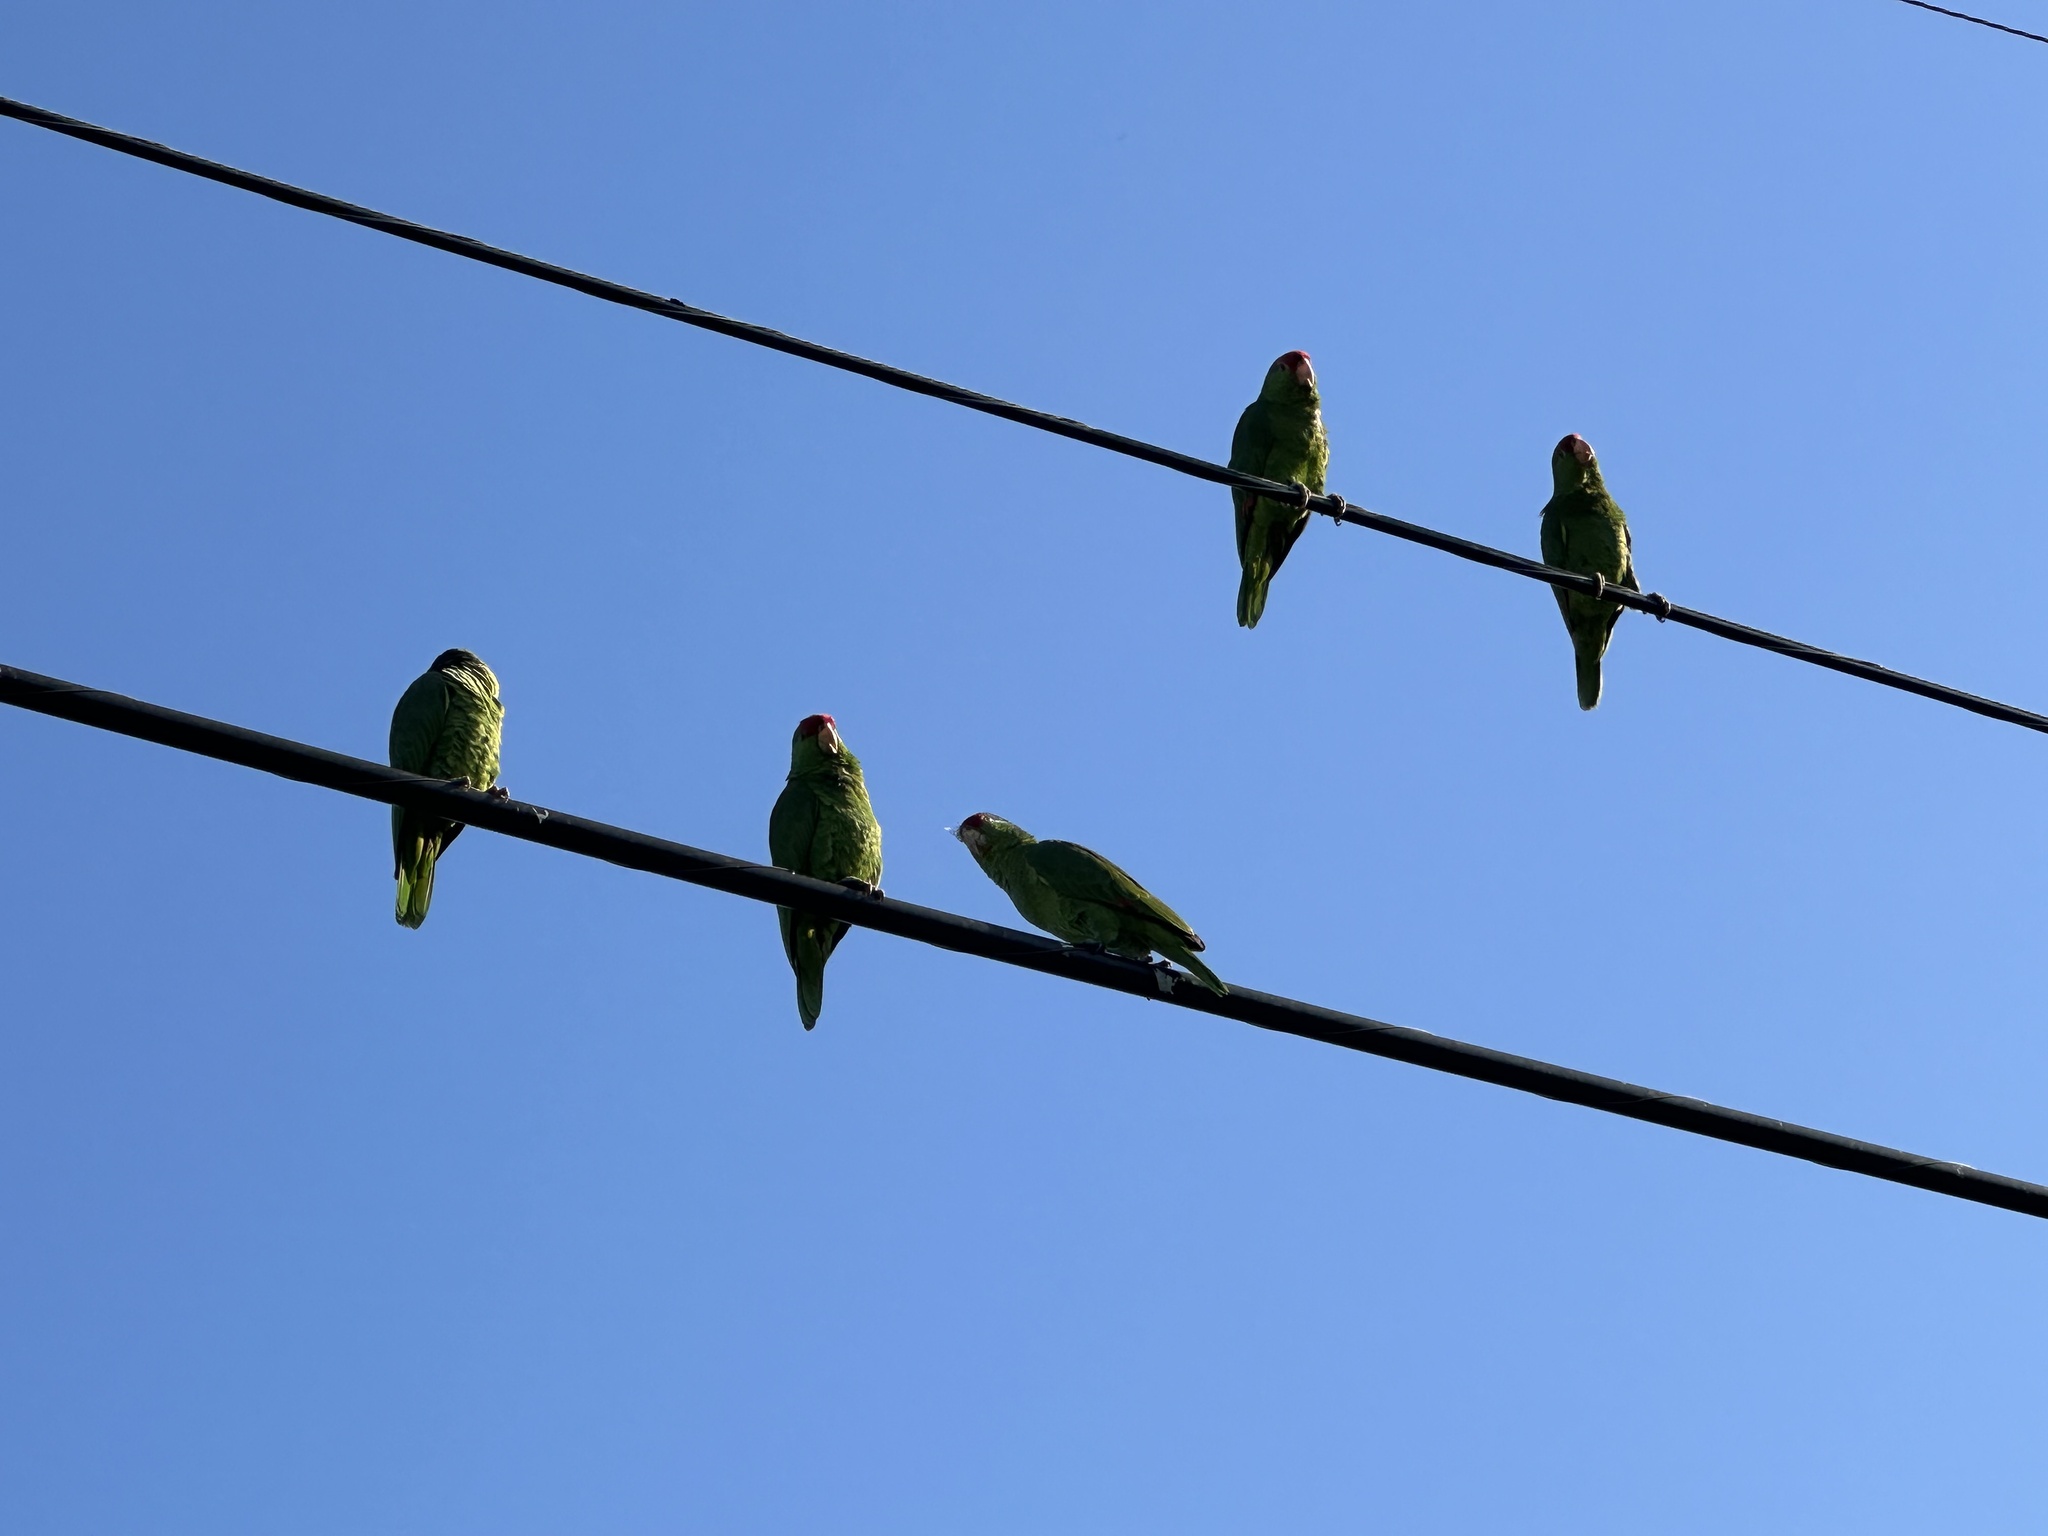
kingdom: Animalia
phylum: Chordata
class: Aves
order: Psittaciformes
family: Psittacidae
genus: Amazona
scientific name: Amazona viridigenalis
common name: Red-crowned amazon
